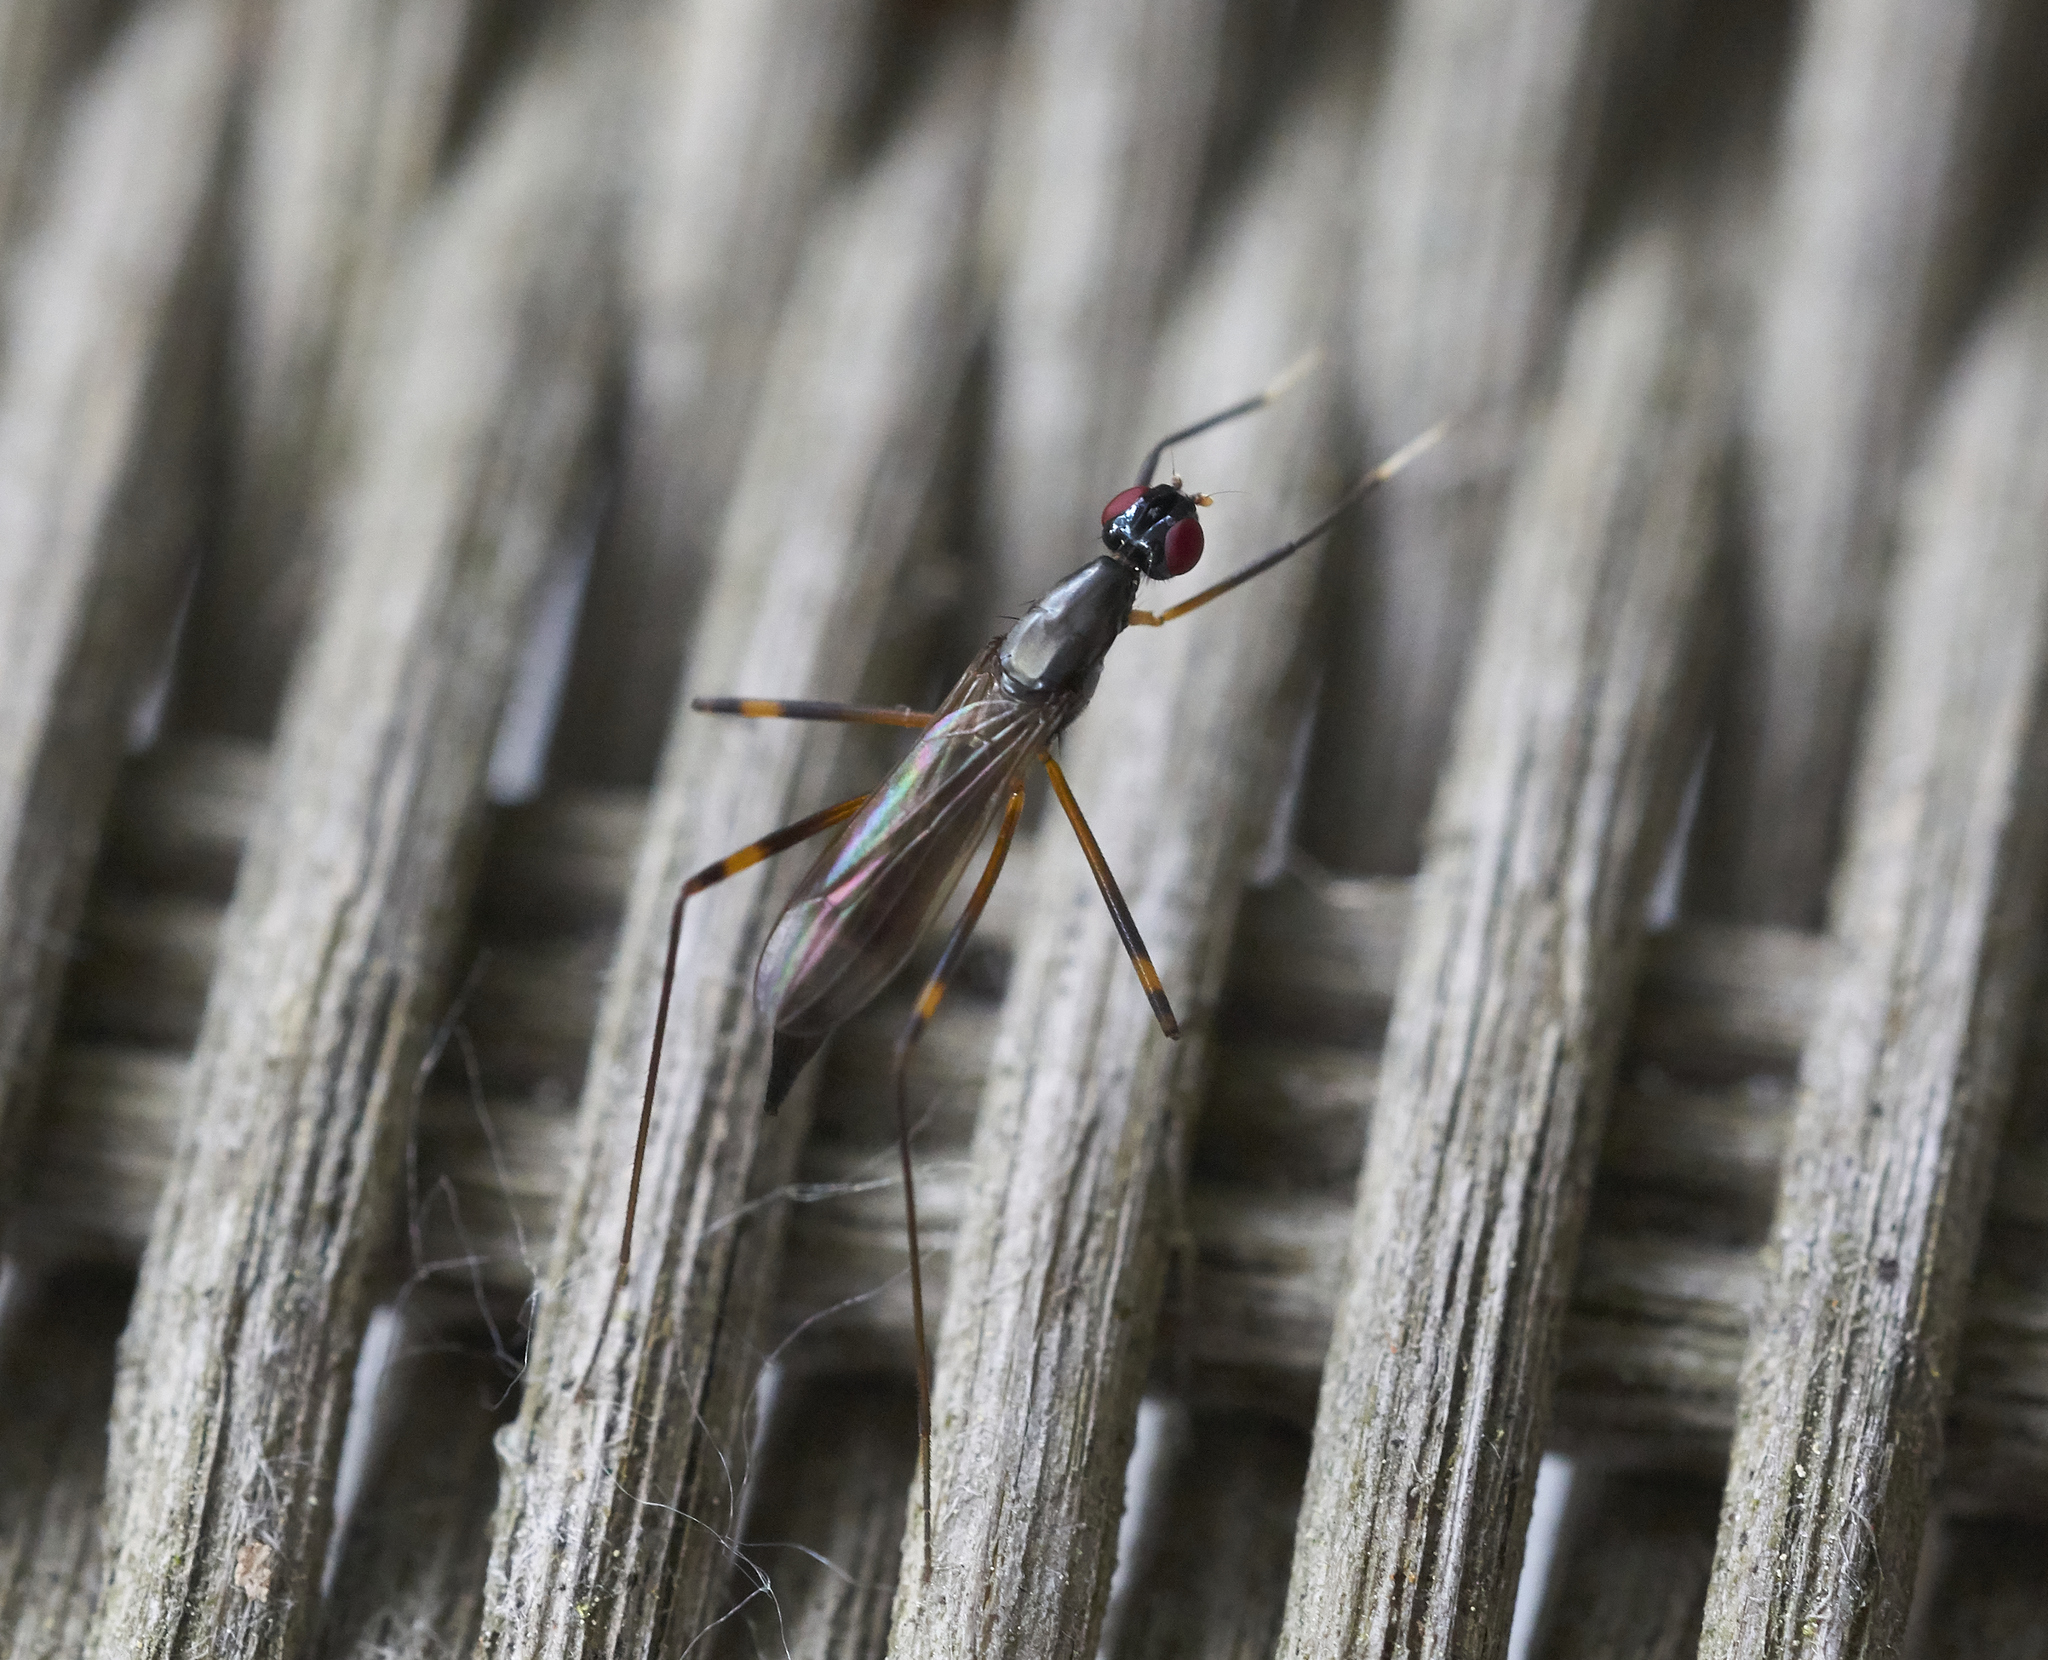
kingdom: Animalia
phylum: Arthropoda
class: Insecta
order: Diptera
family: Micropezidae
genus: Rainieria
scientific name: Rainieria antennaepes
